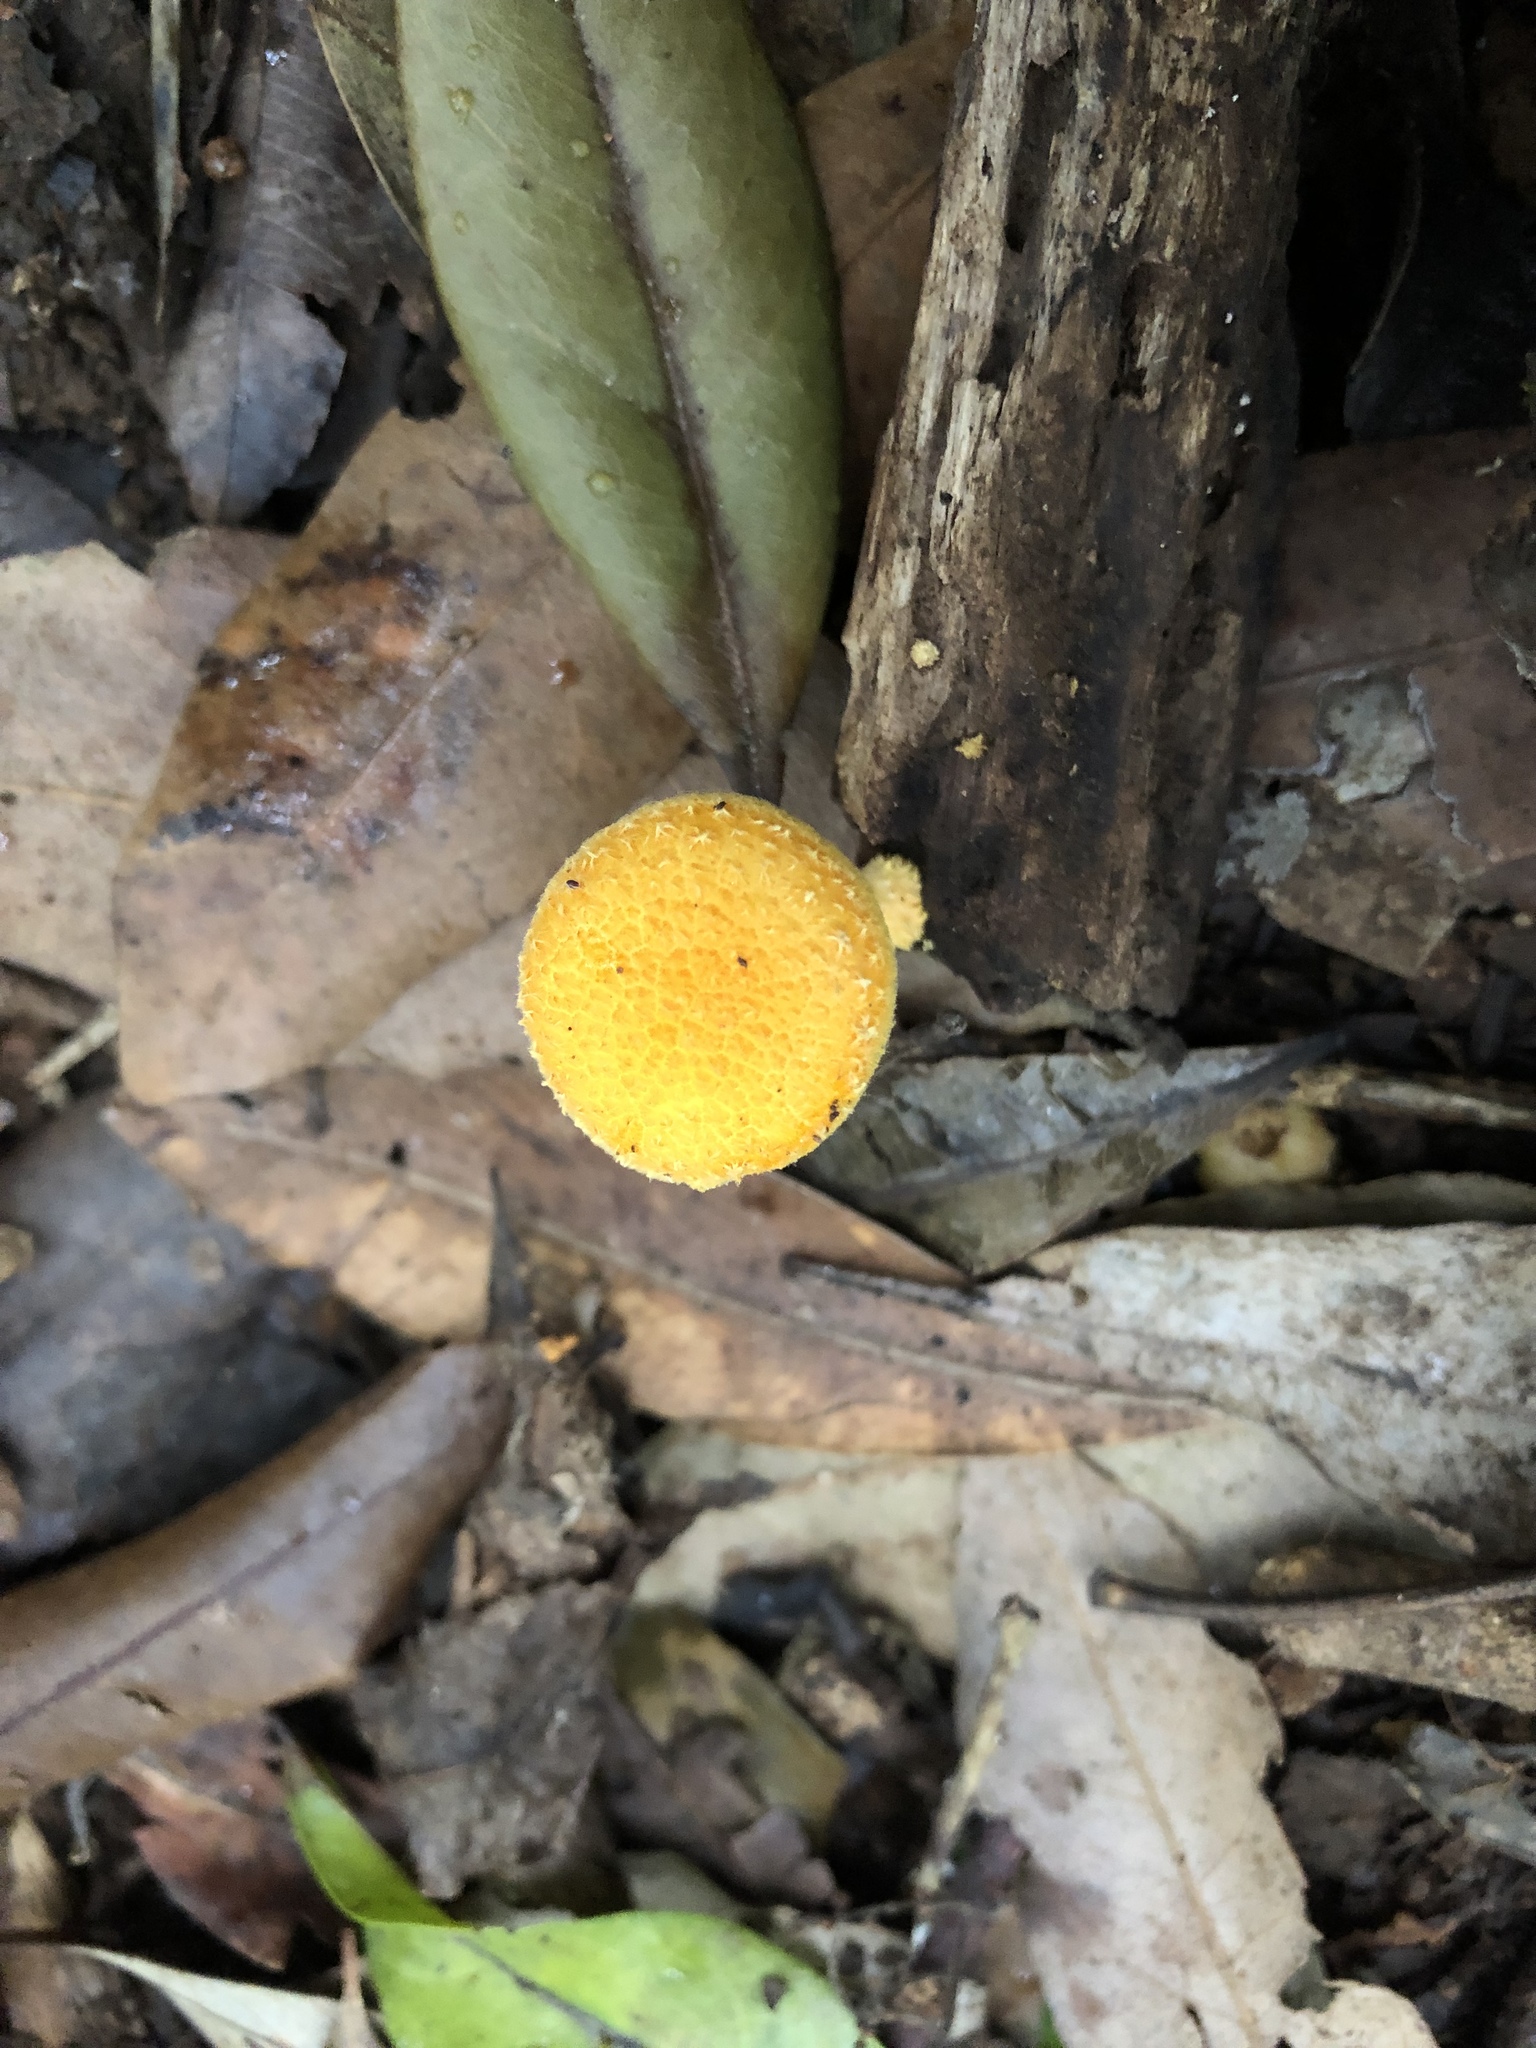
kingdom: Fungi
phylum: Basidiomycota
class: Agaricomycetes
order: Agaricales
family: Physalacriaceae
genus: Cyptotrama
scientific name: Cyptotrama asprata
